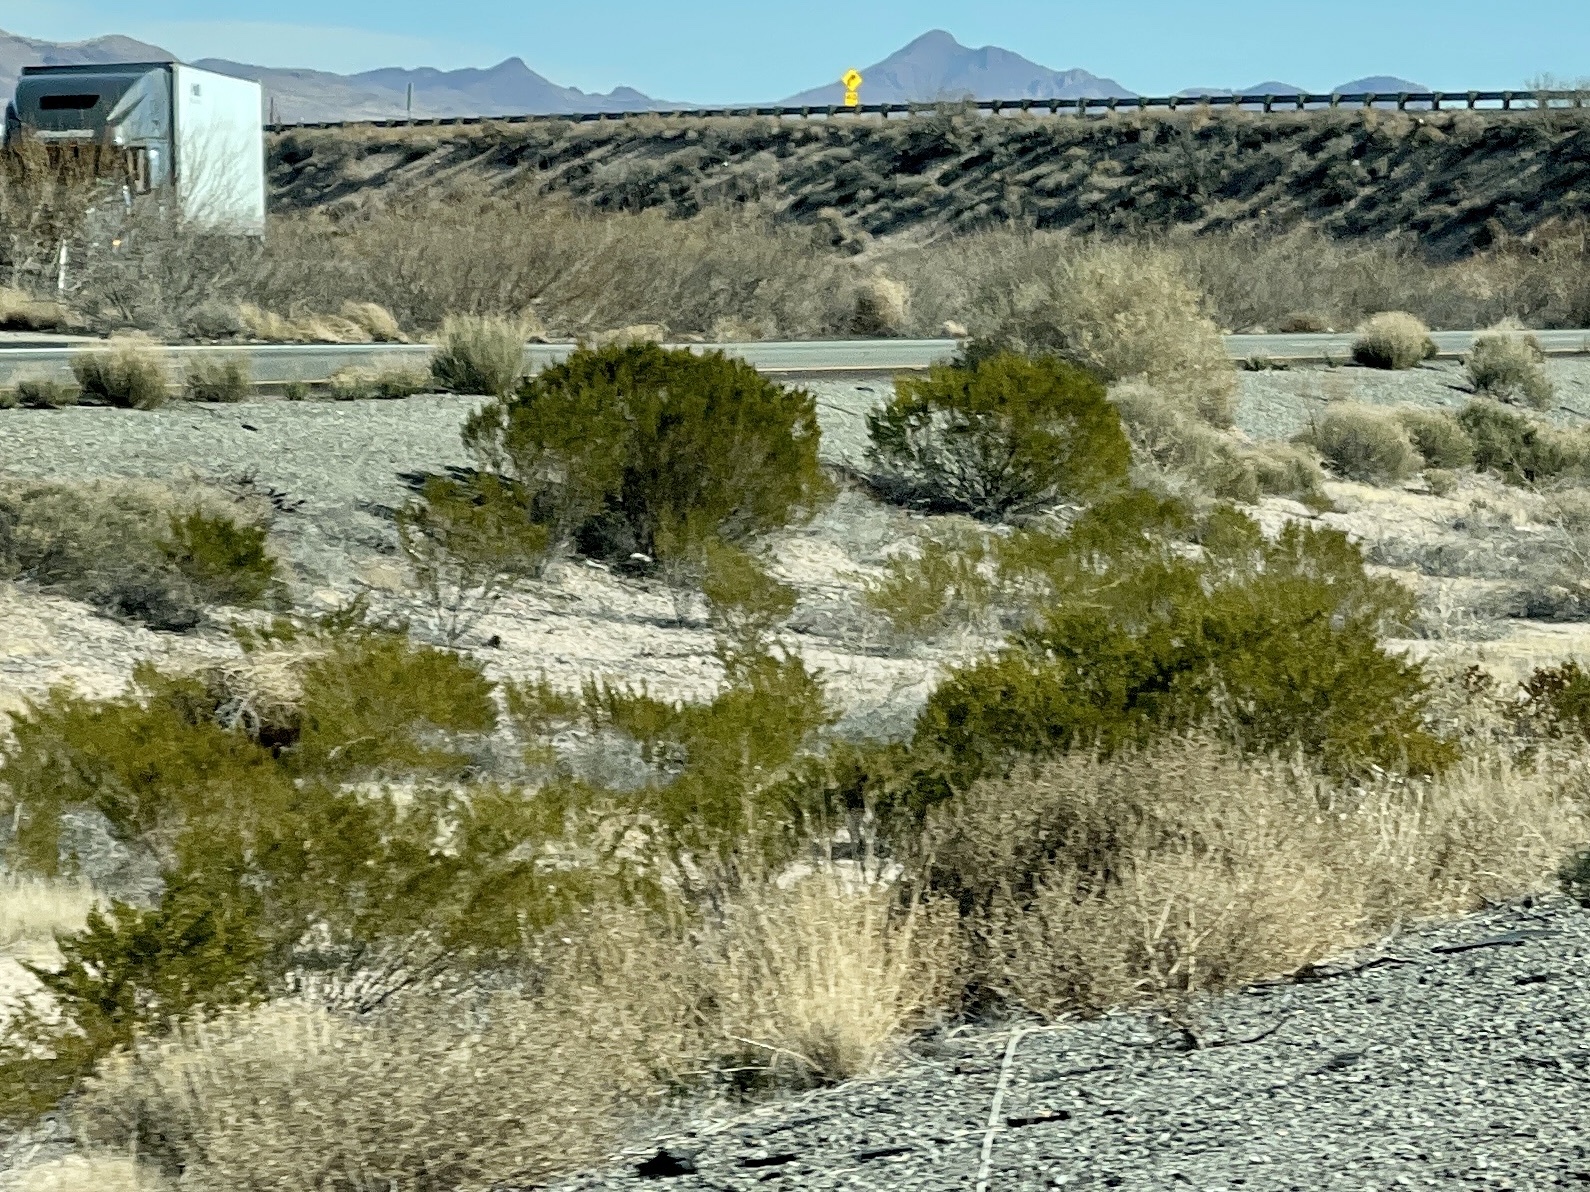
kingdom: Plantae
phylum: Tracheophyta
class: Magnoliopsida
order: Zygophyllales
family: Zygophyllaceae
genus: Larrea
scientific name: Larrea tridentata
